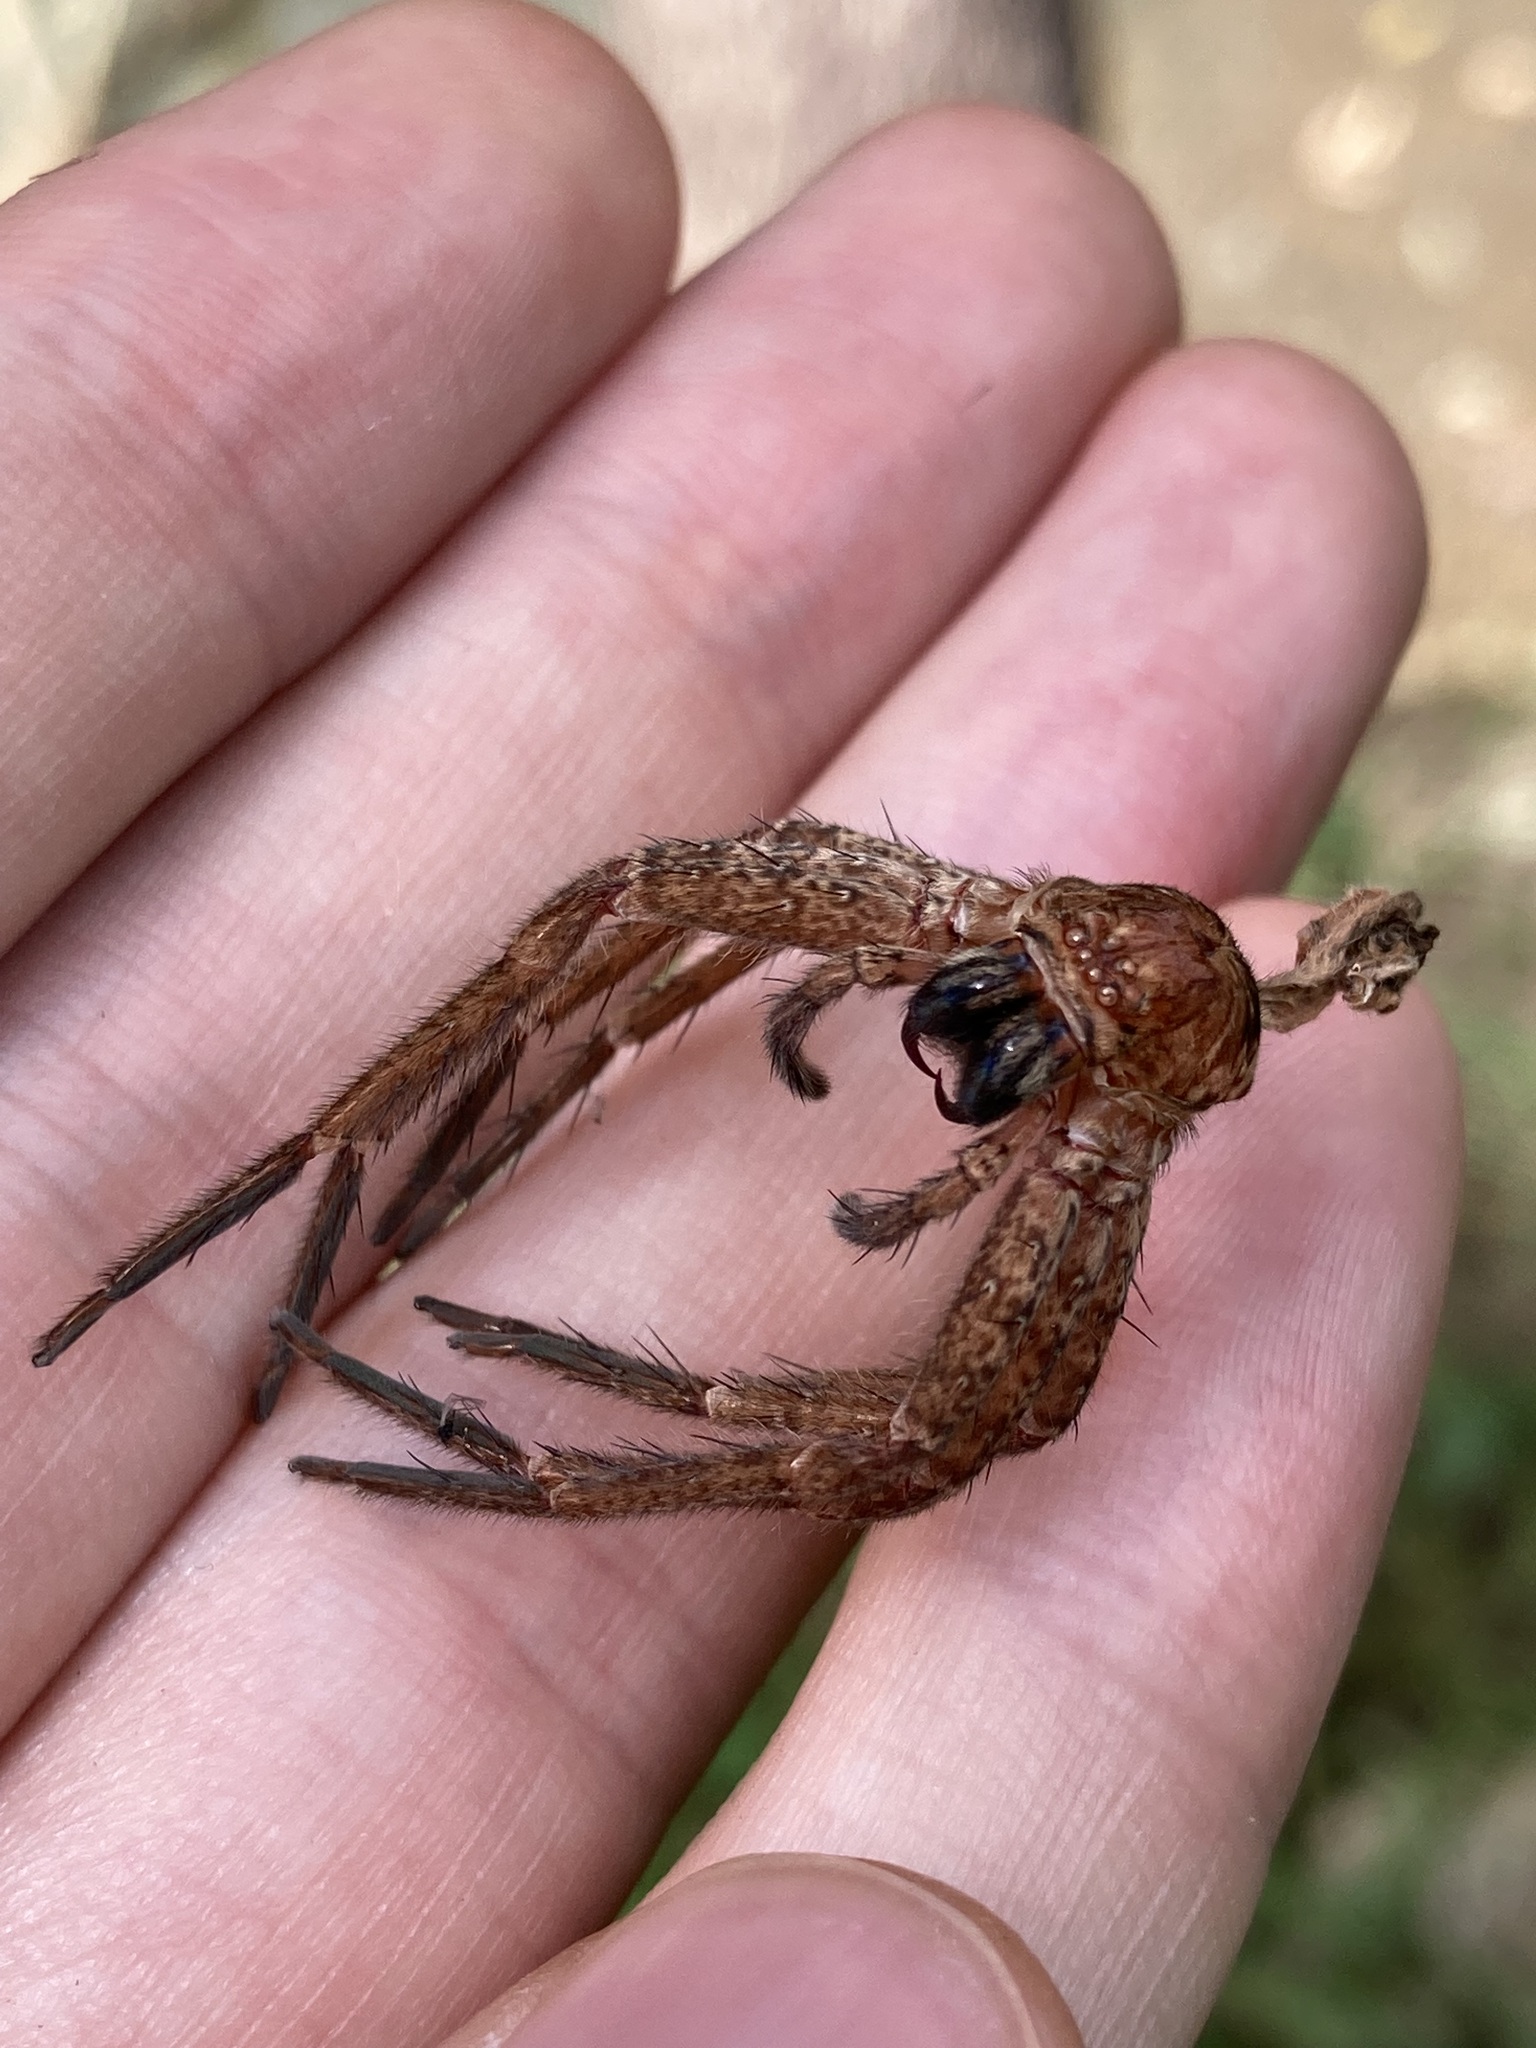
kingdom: Animalia
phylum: Arthropoda
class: Arachnida
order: Araneae
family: Sparassidae
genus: Heteropoda
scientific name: Heteropoda jugulans
